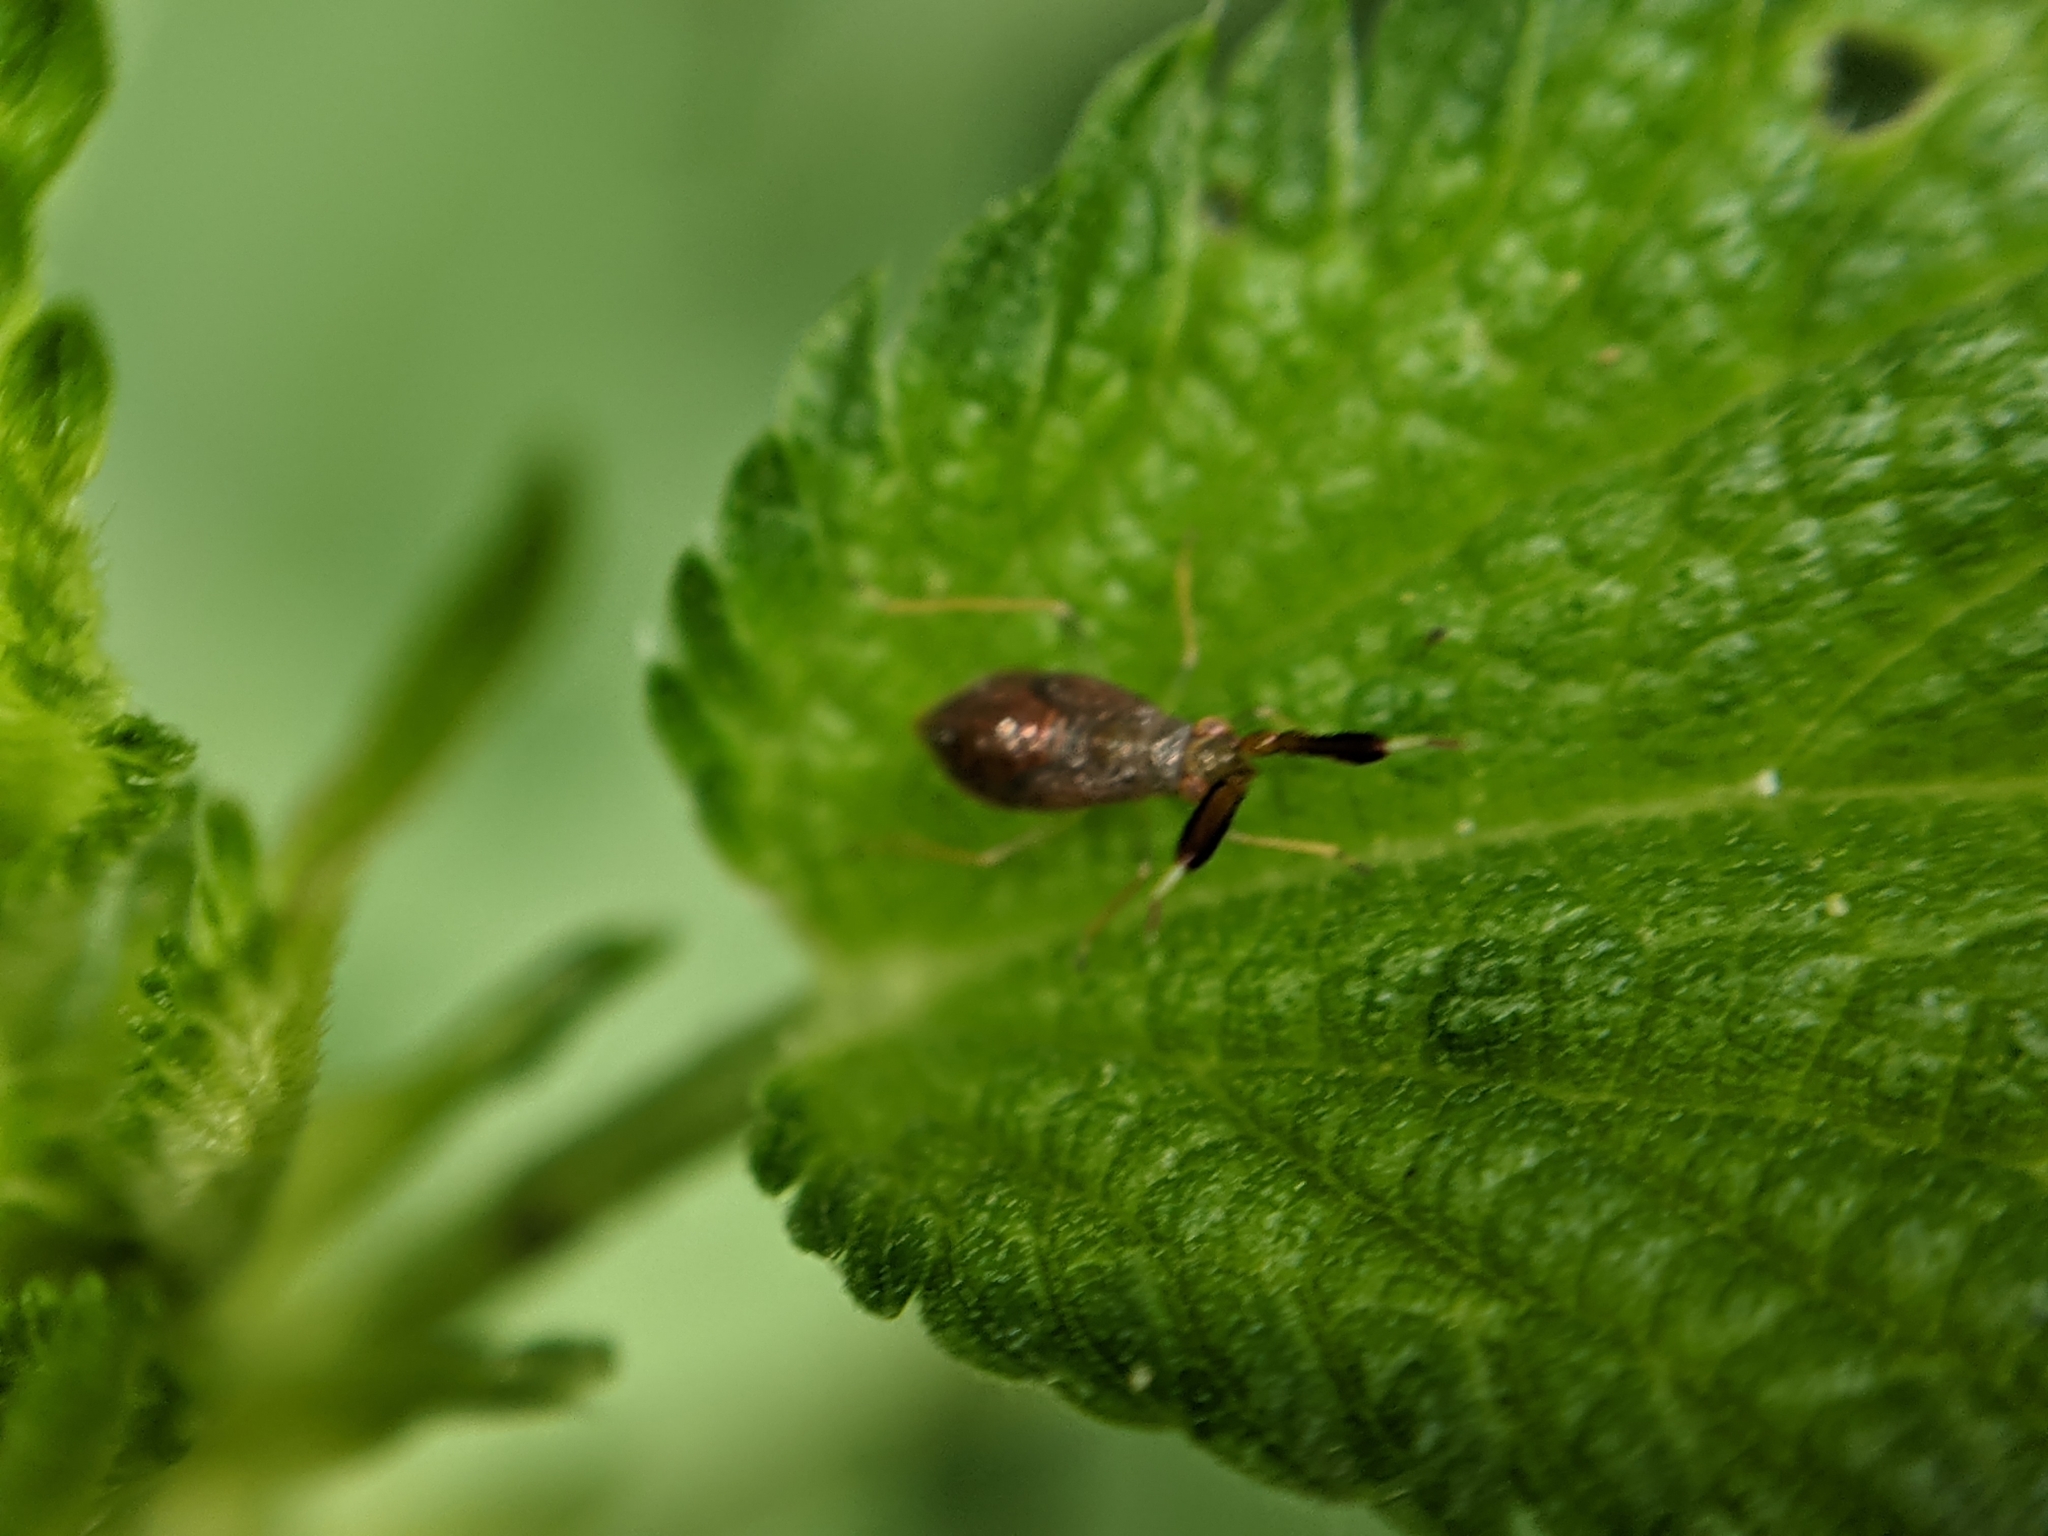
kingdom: Animalia
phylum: Arthropoda
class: Insecta
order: Hemiptera
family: Miridae
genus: Heterotoma
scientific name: Heterotoma planicornis
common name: Plant bug
